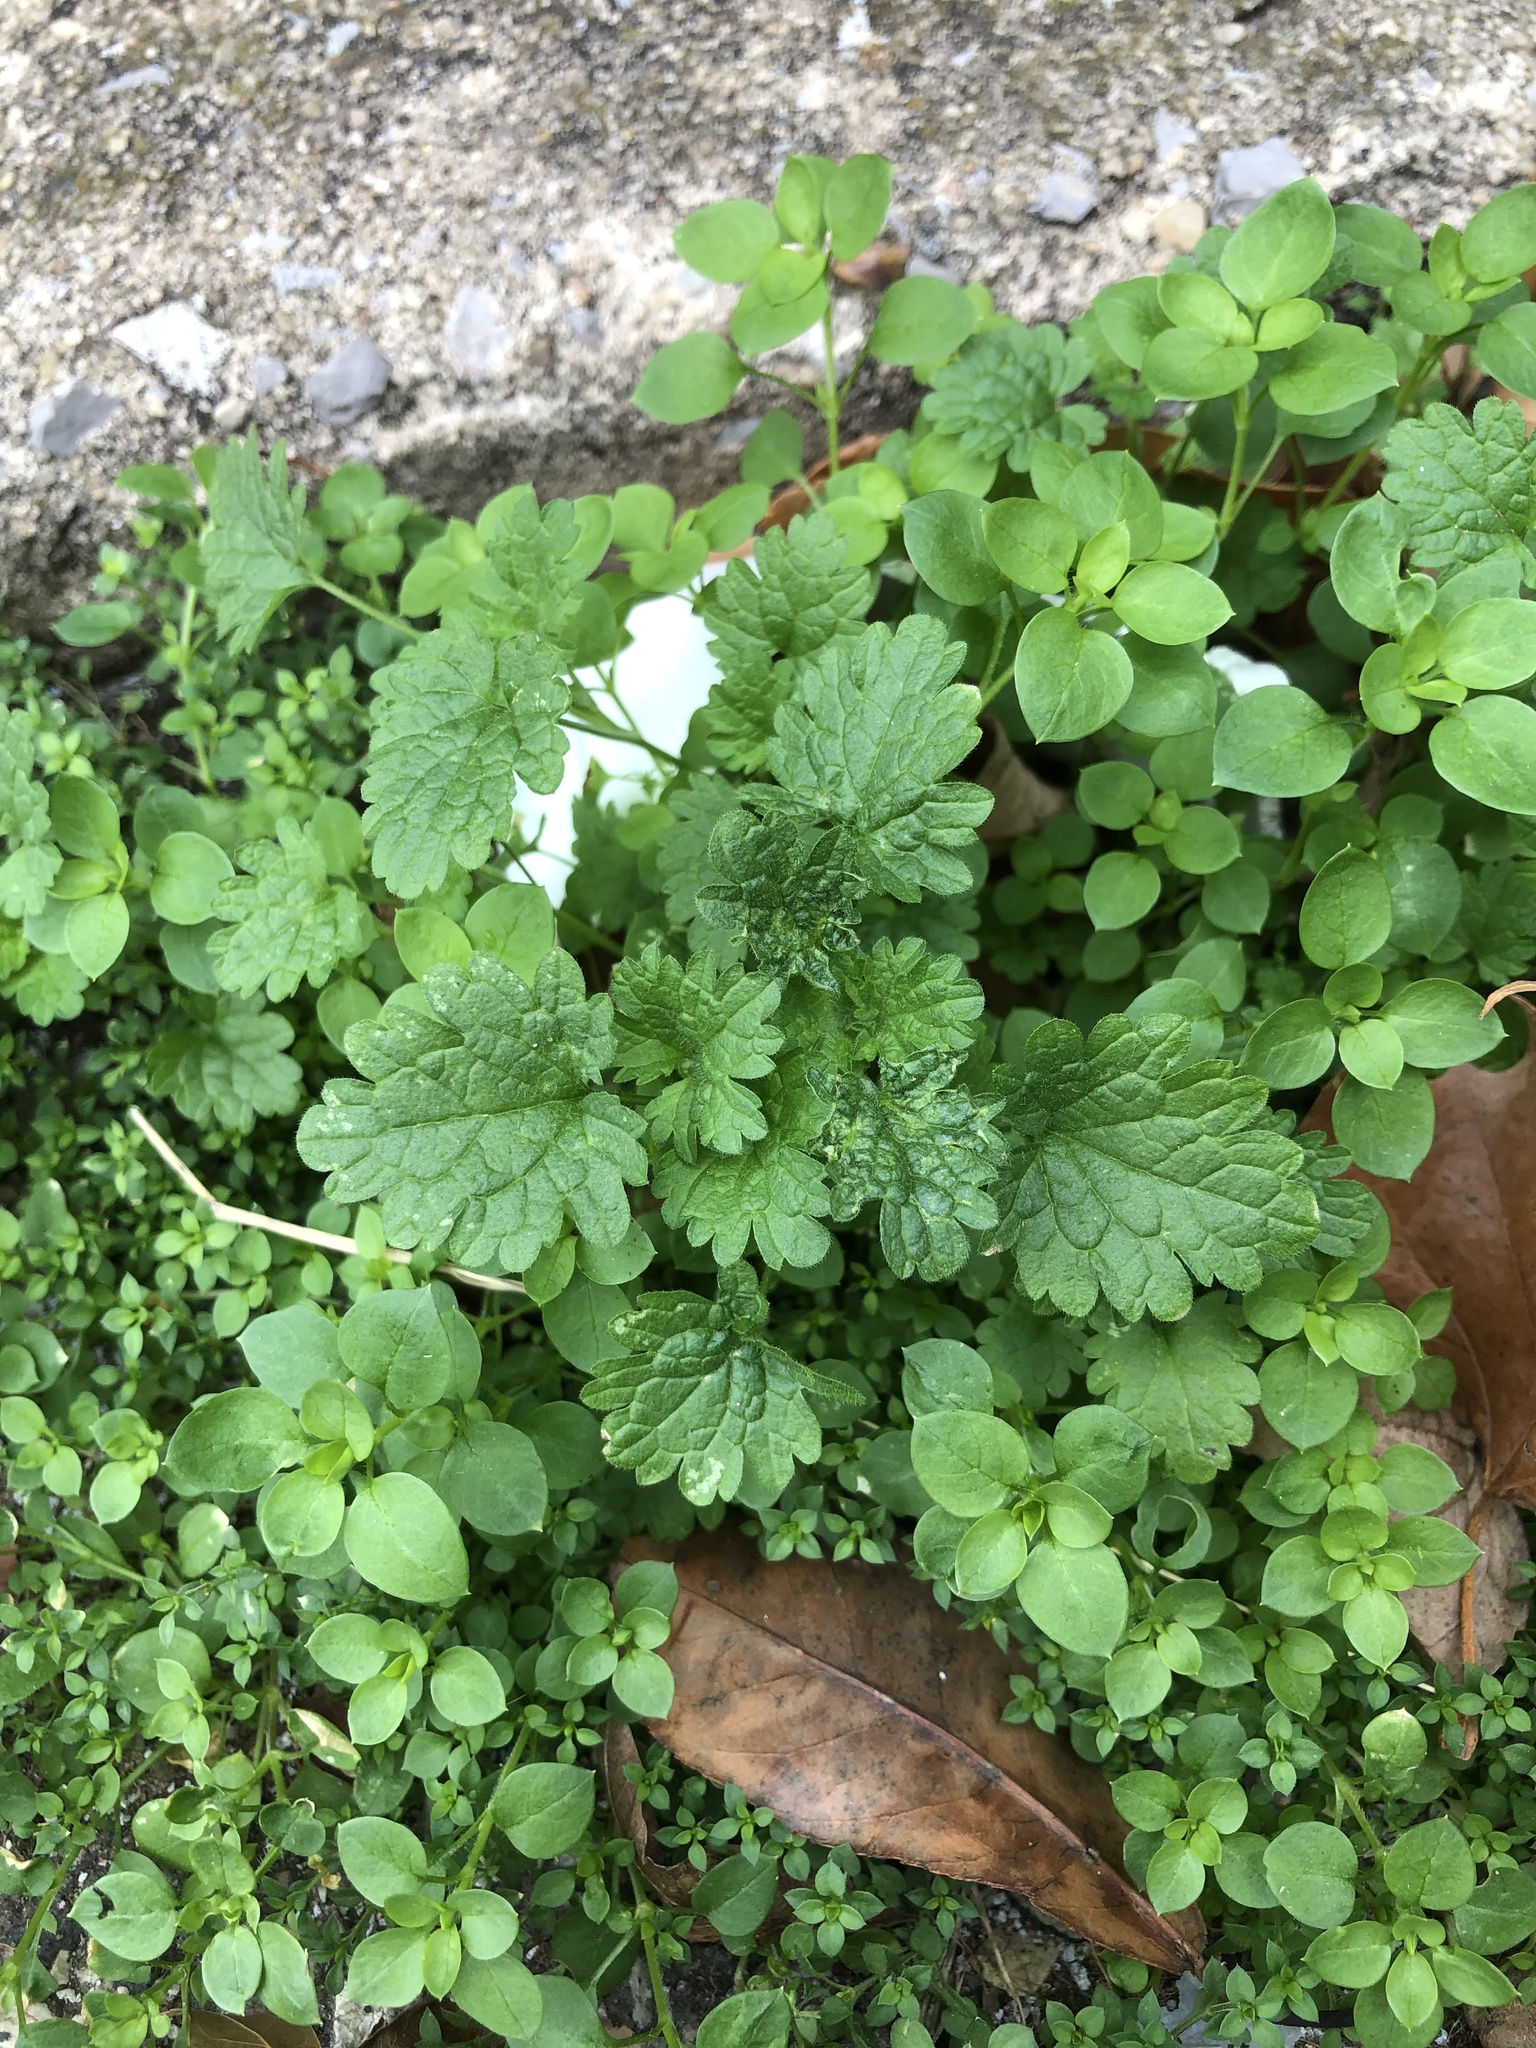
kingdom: Plantae
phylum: Tracheophyta
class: Magnoliopsida
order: Lamiales
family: Lamiaceae
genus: Lamium
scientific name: Lamium amplexicaule
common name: Henbit dead-nettle
